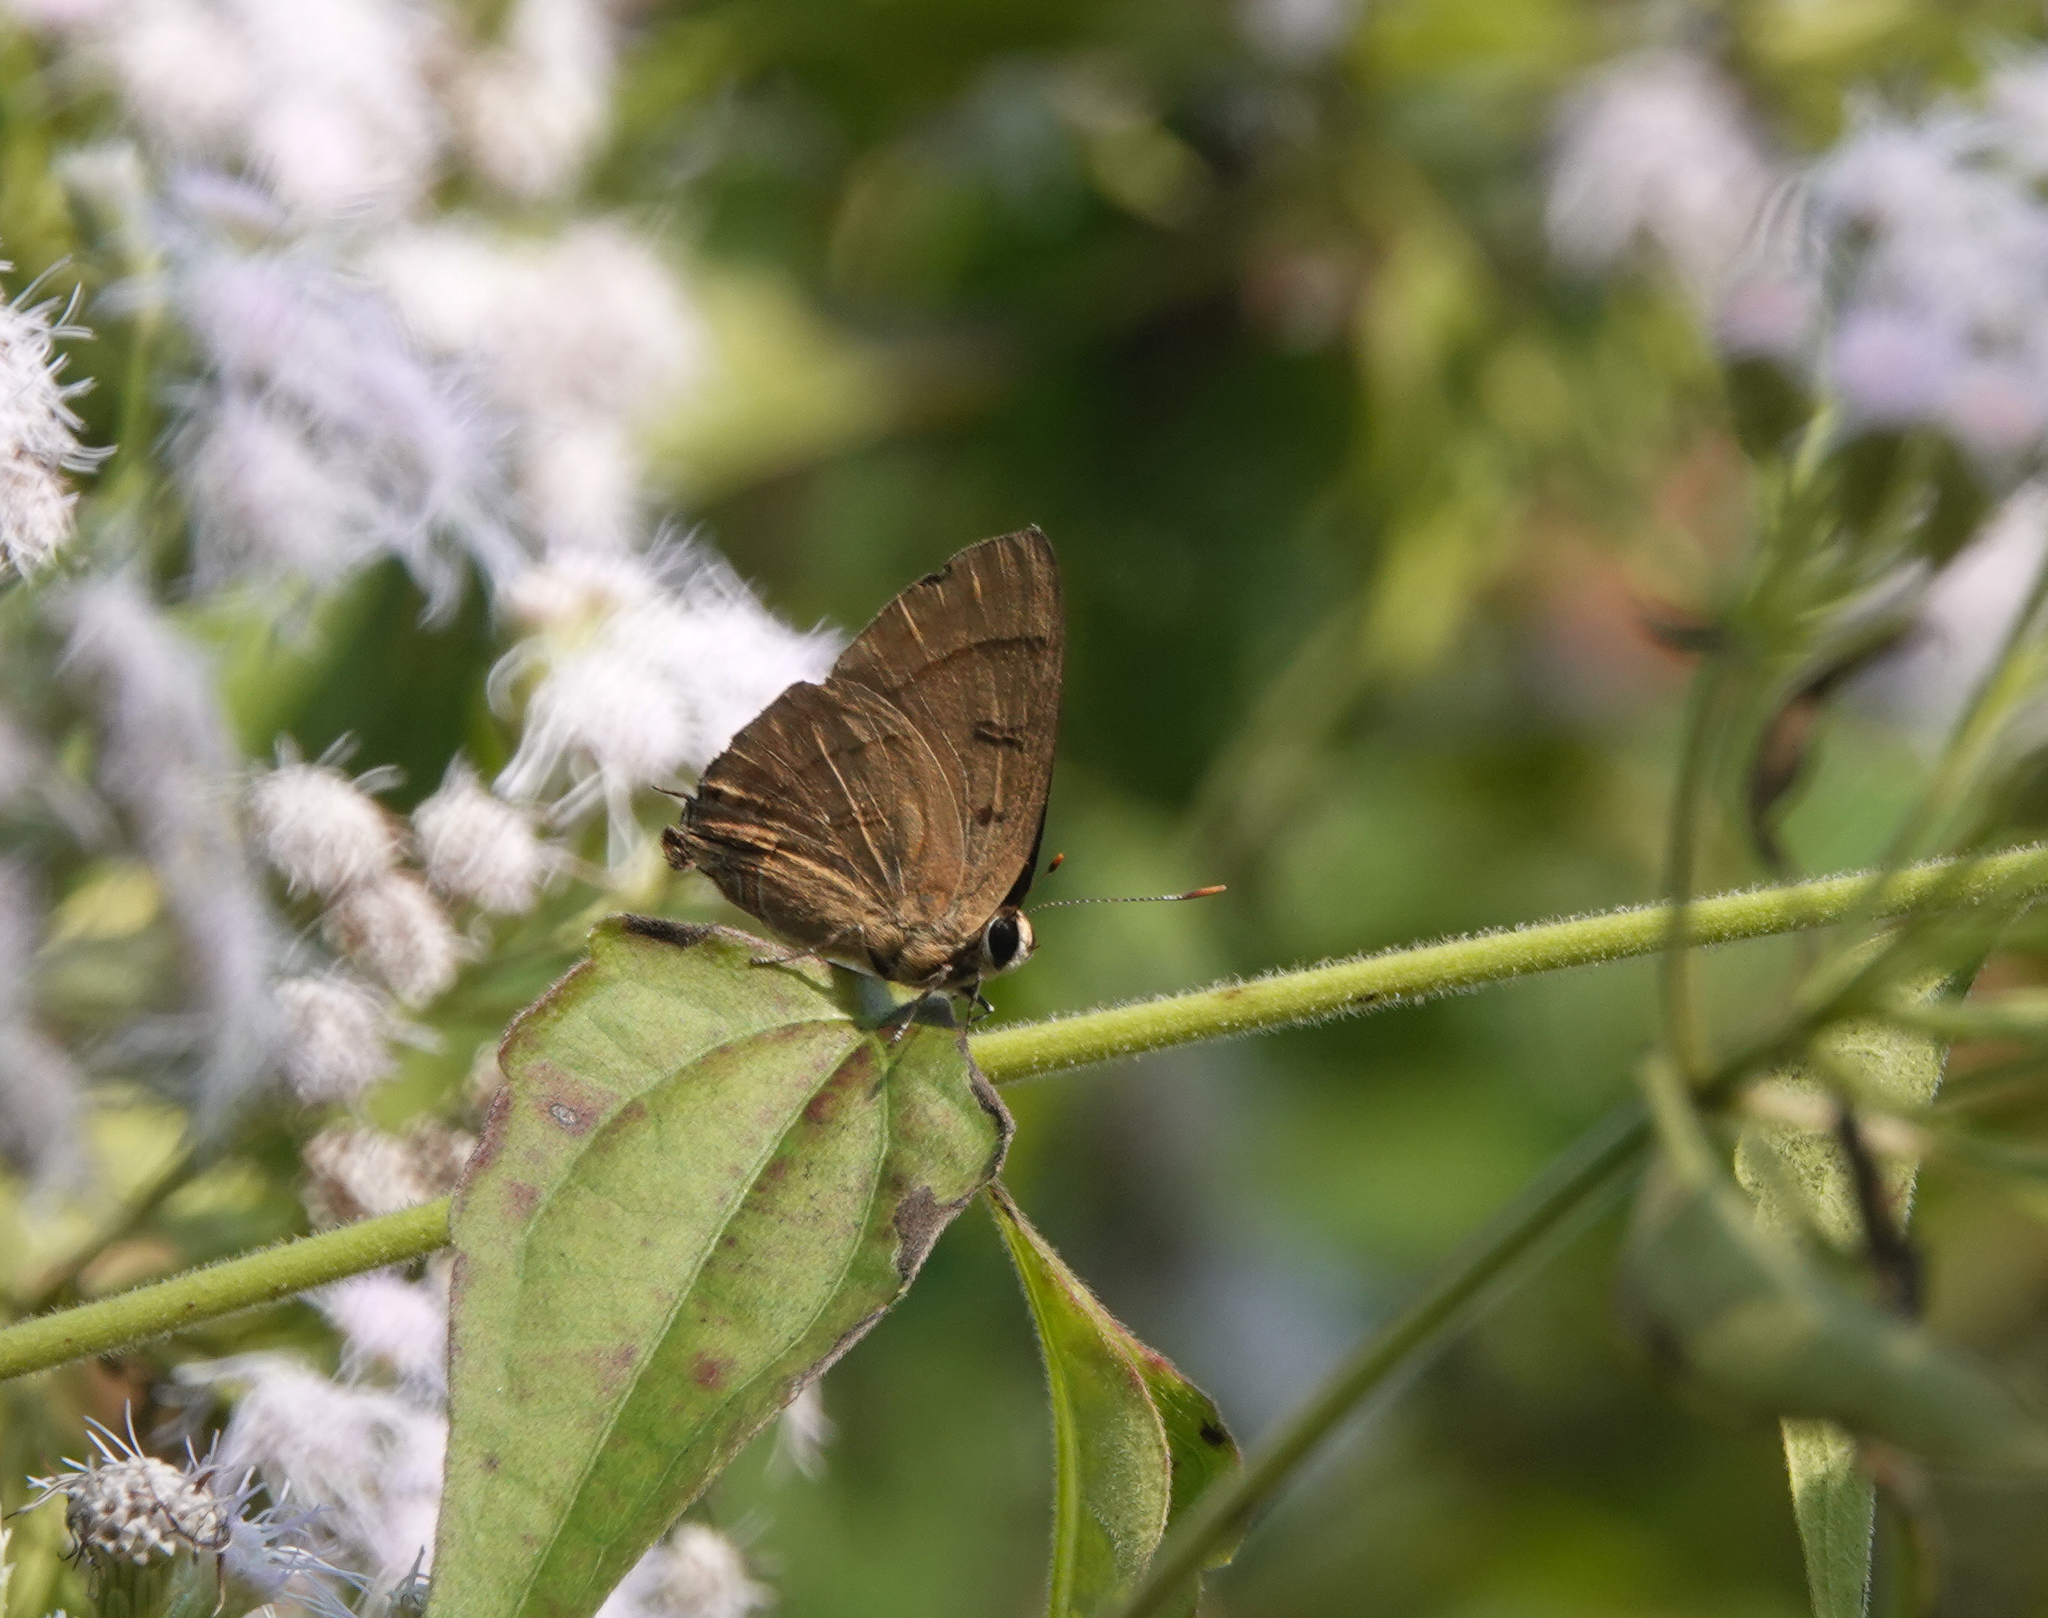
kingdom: Animalia
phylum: Arthropoda
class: Insecta
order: Lepidoptera
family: Lycaenidae
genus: Rapala
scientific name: Rapala manea
